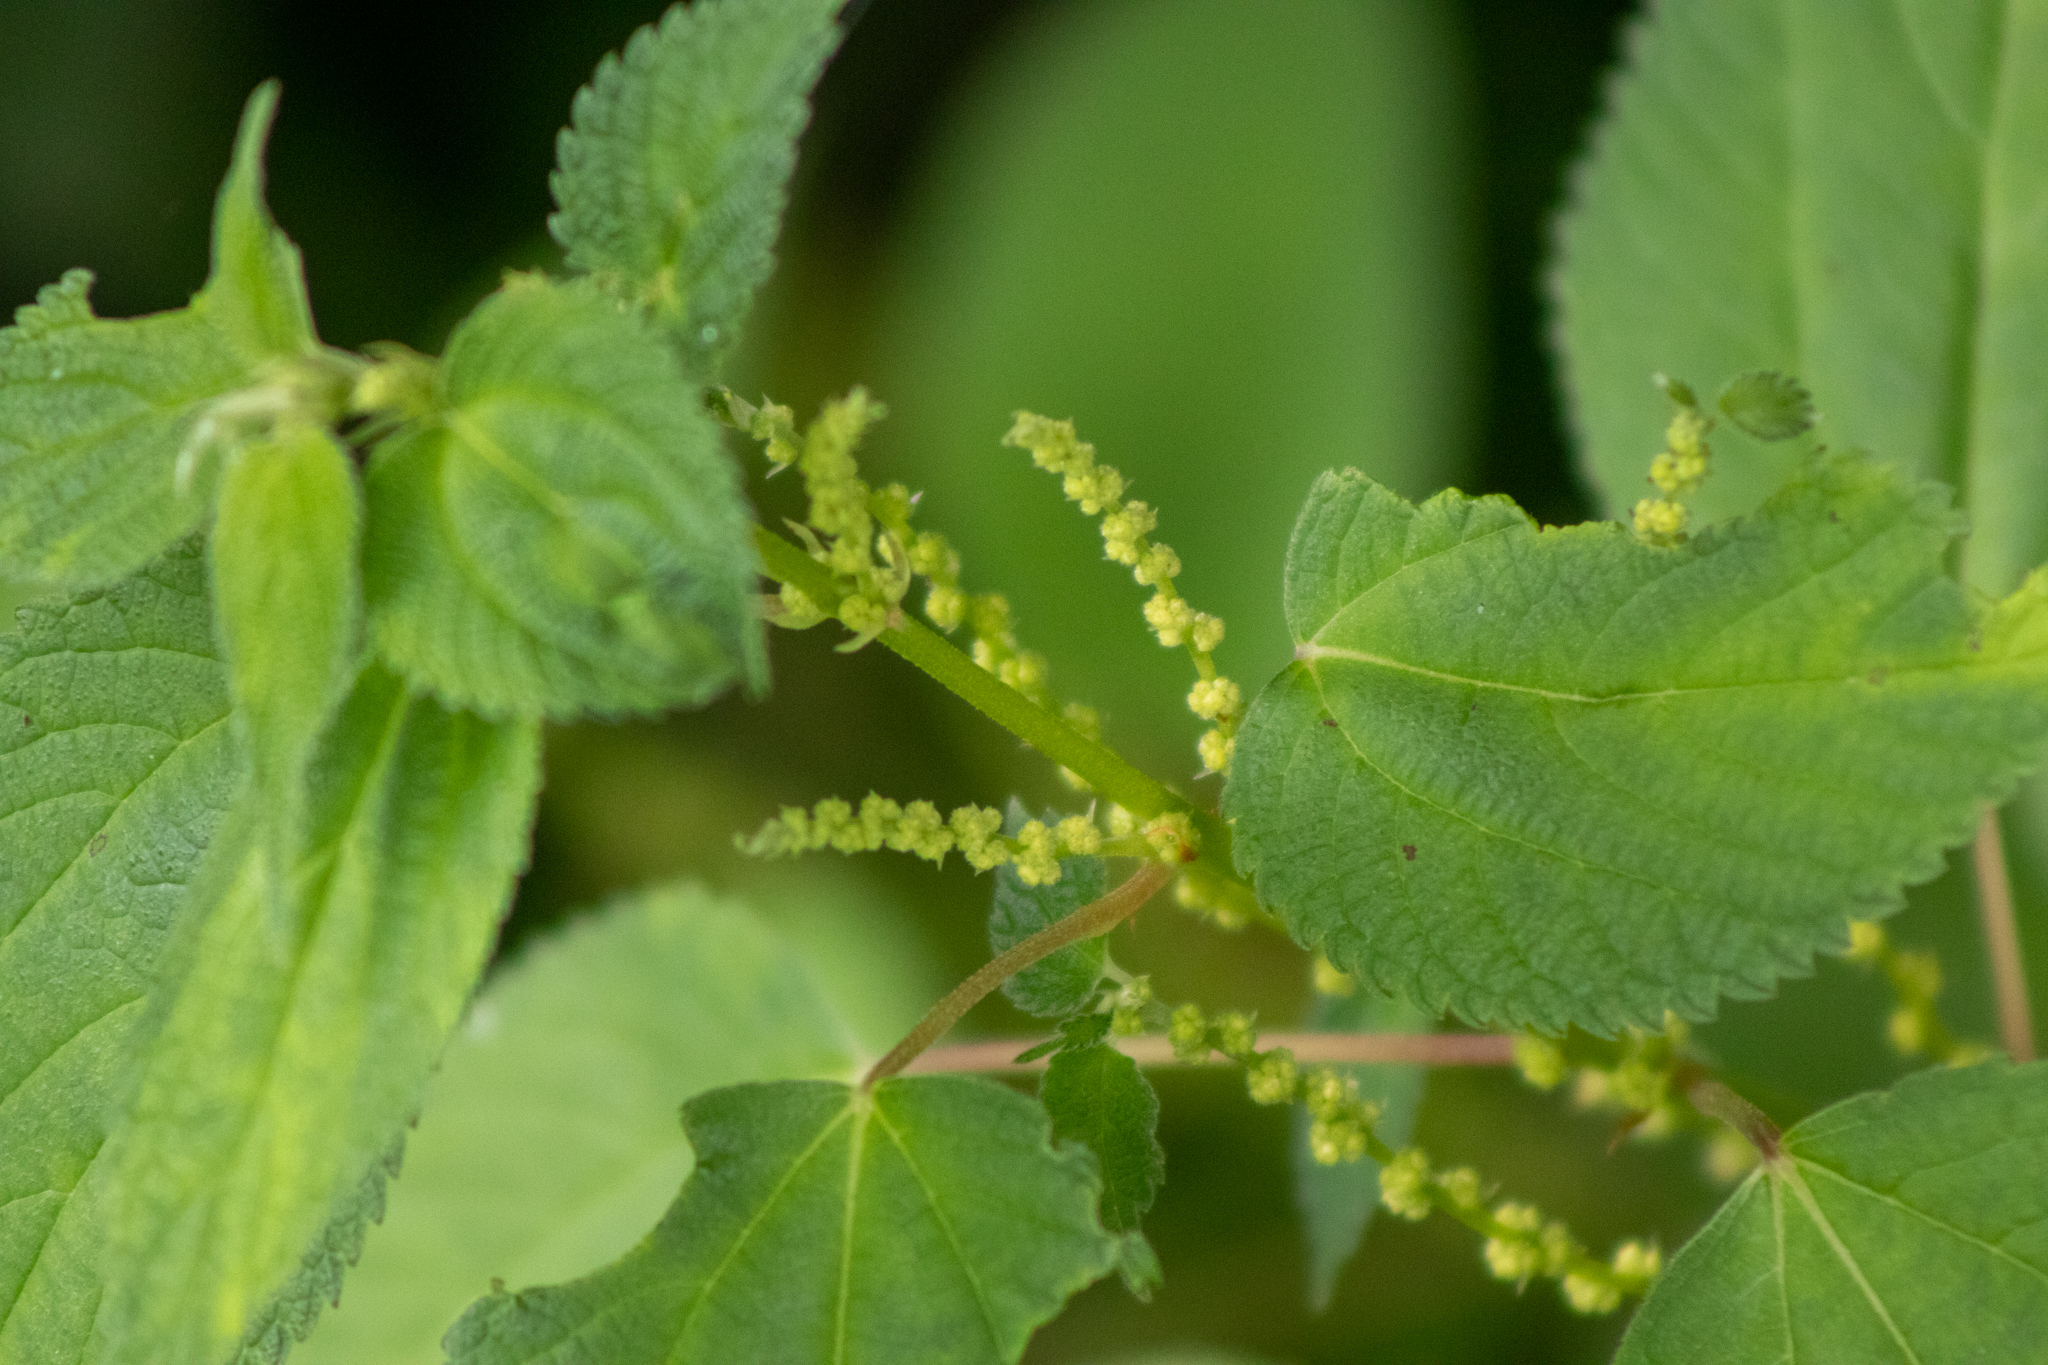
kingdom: Plantae
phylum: Tracheophyta
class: Magnoliopsida
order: Rosales
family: Urticaceae
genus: Boehmeria
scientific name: Boehmeria cylindrica
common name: Bog-hemp
